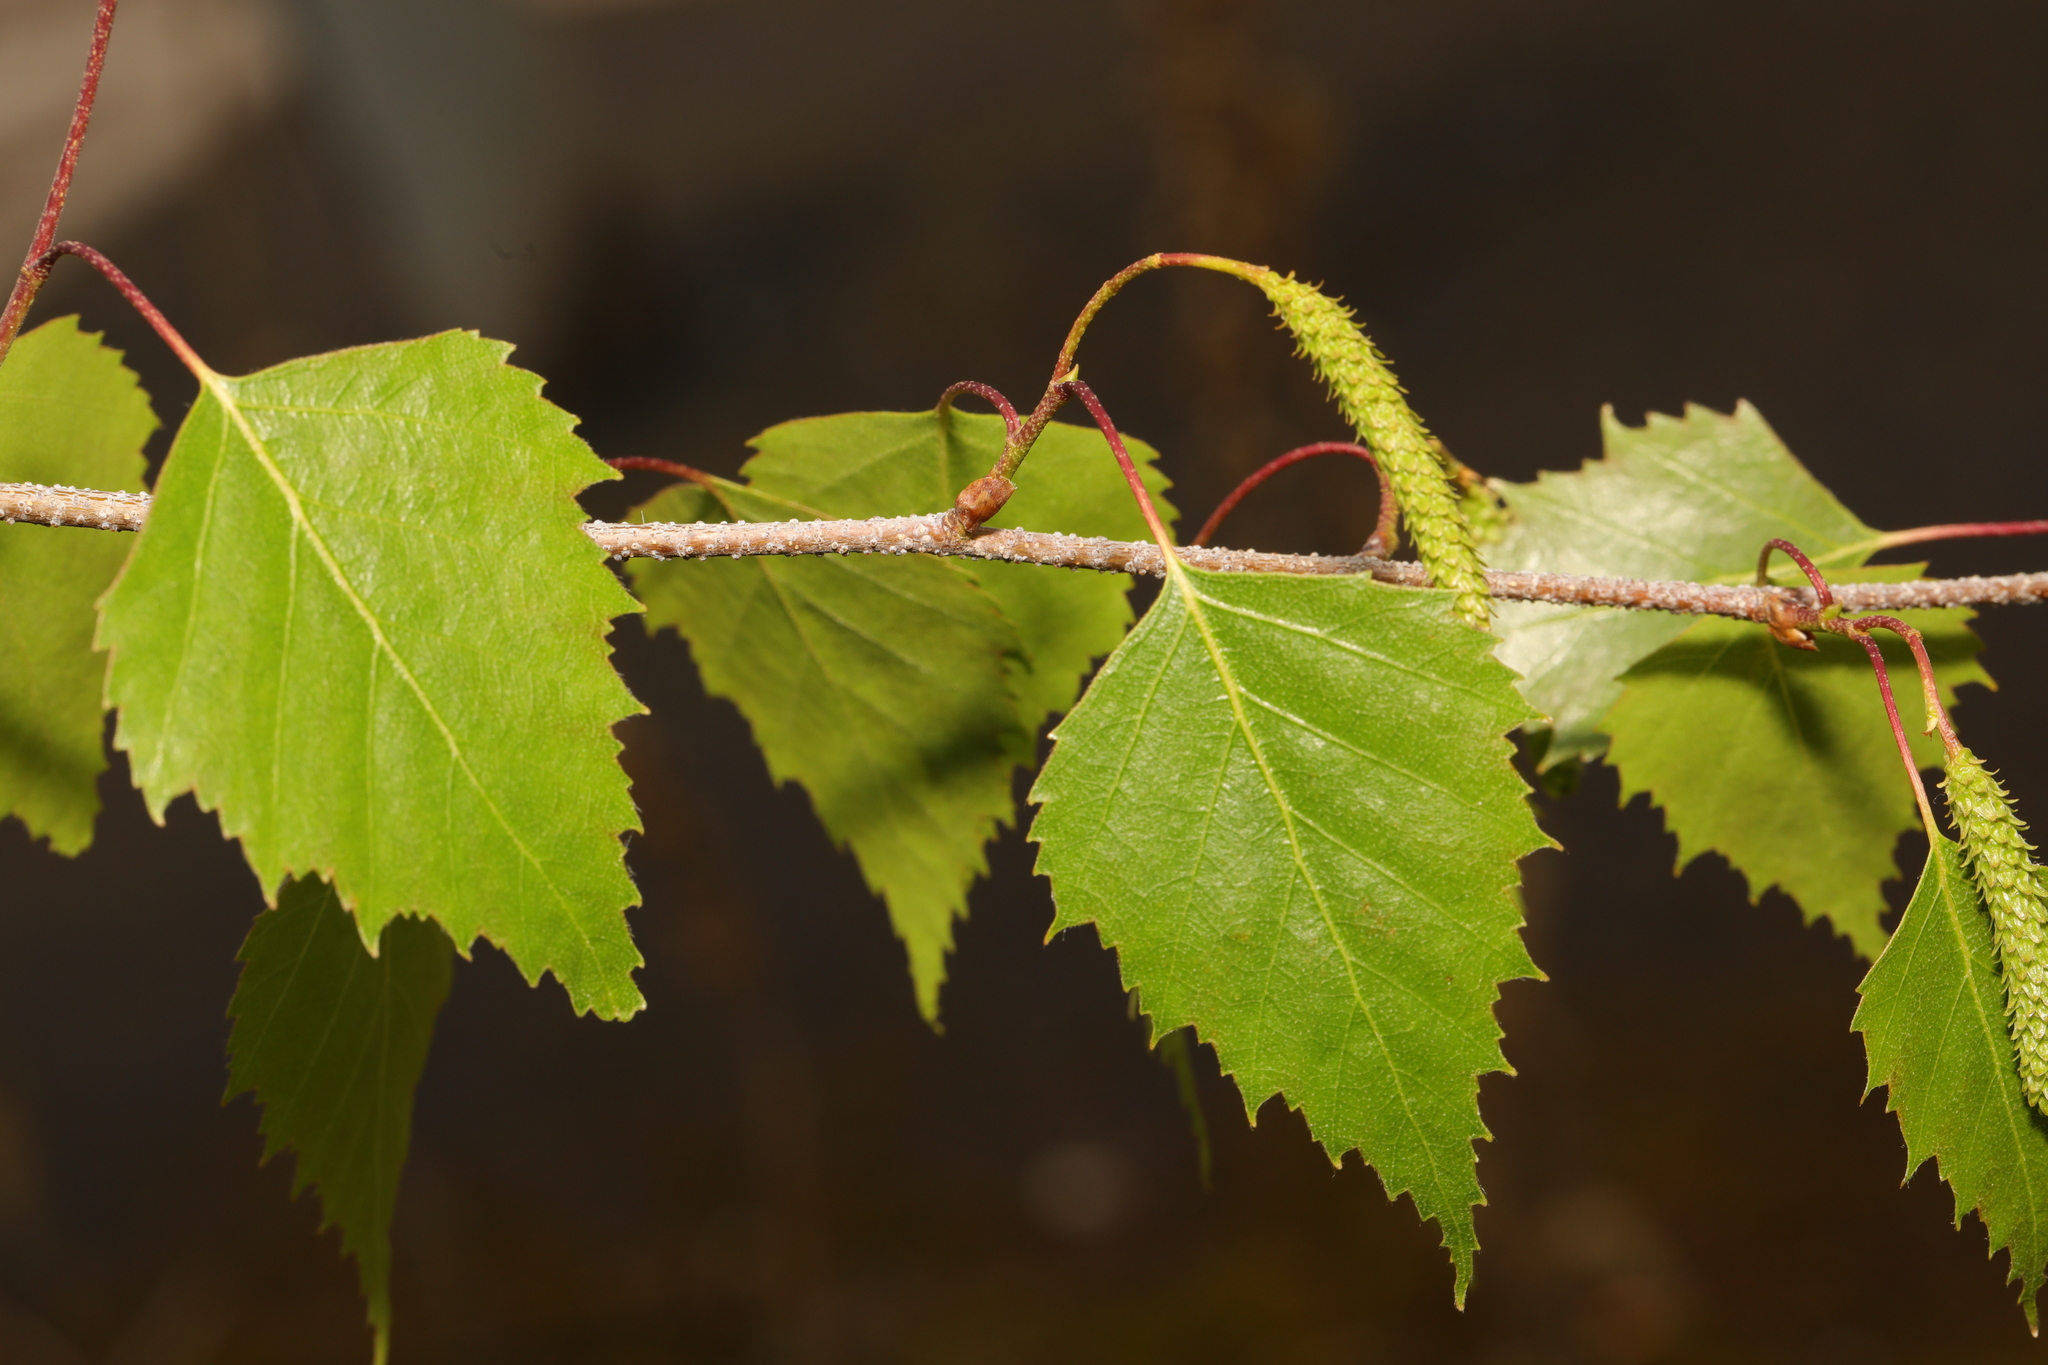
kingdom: Plantae
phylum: Tracheophyta
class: Magnoliopsida
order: Fagales
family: Betulaceae
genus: Betula
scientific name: Betula pendula
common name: Silver birch
